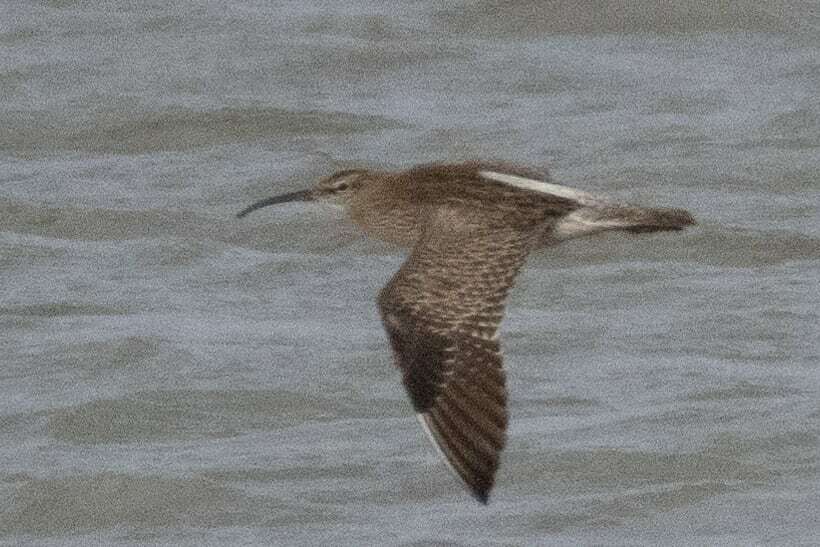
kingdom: Animalia
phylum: Chordata
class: Aves
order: Charadriiformes
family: Scolopacidae
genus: Numenius
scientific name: Numenius phaeopus
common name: Whimbrel
